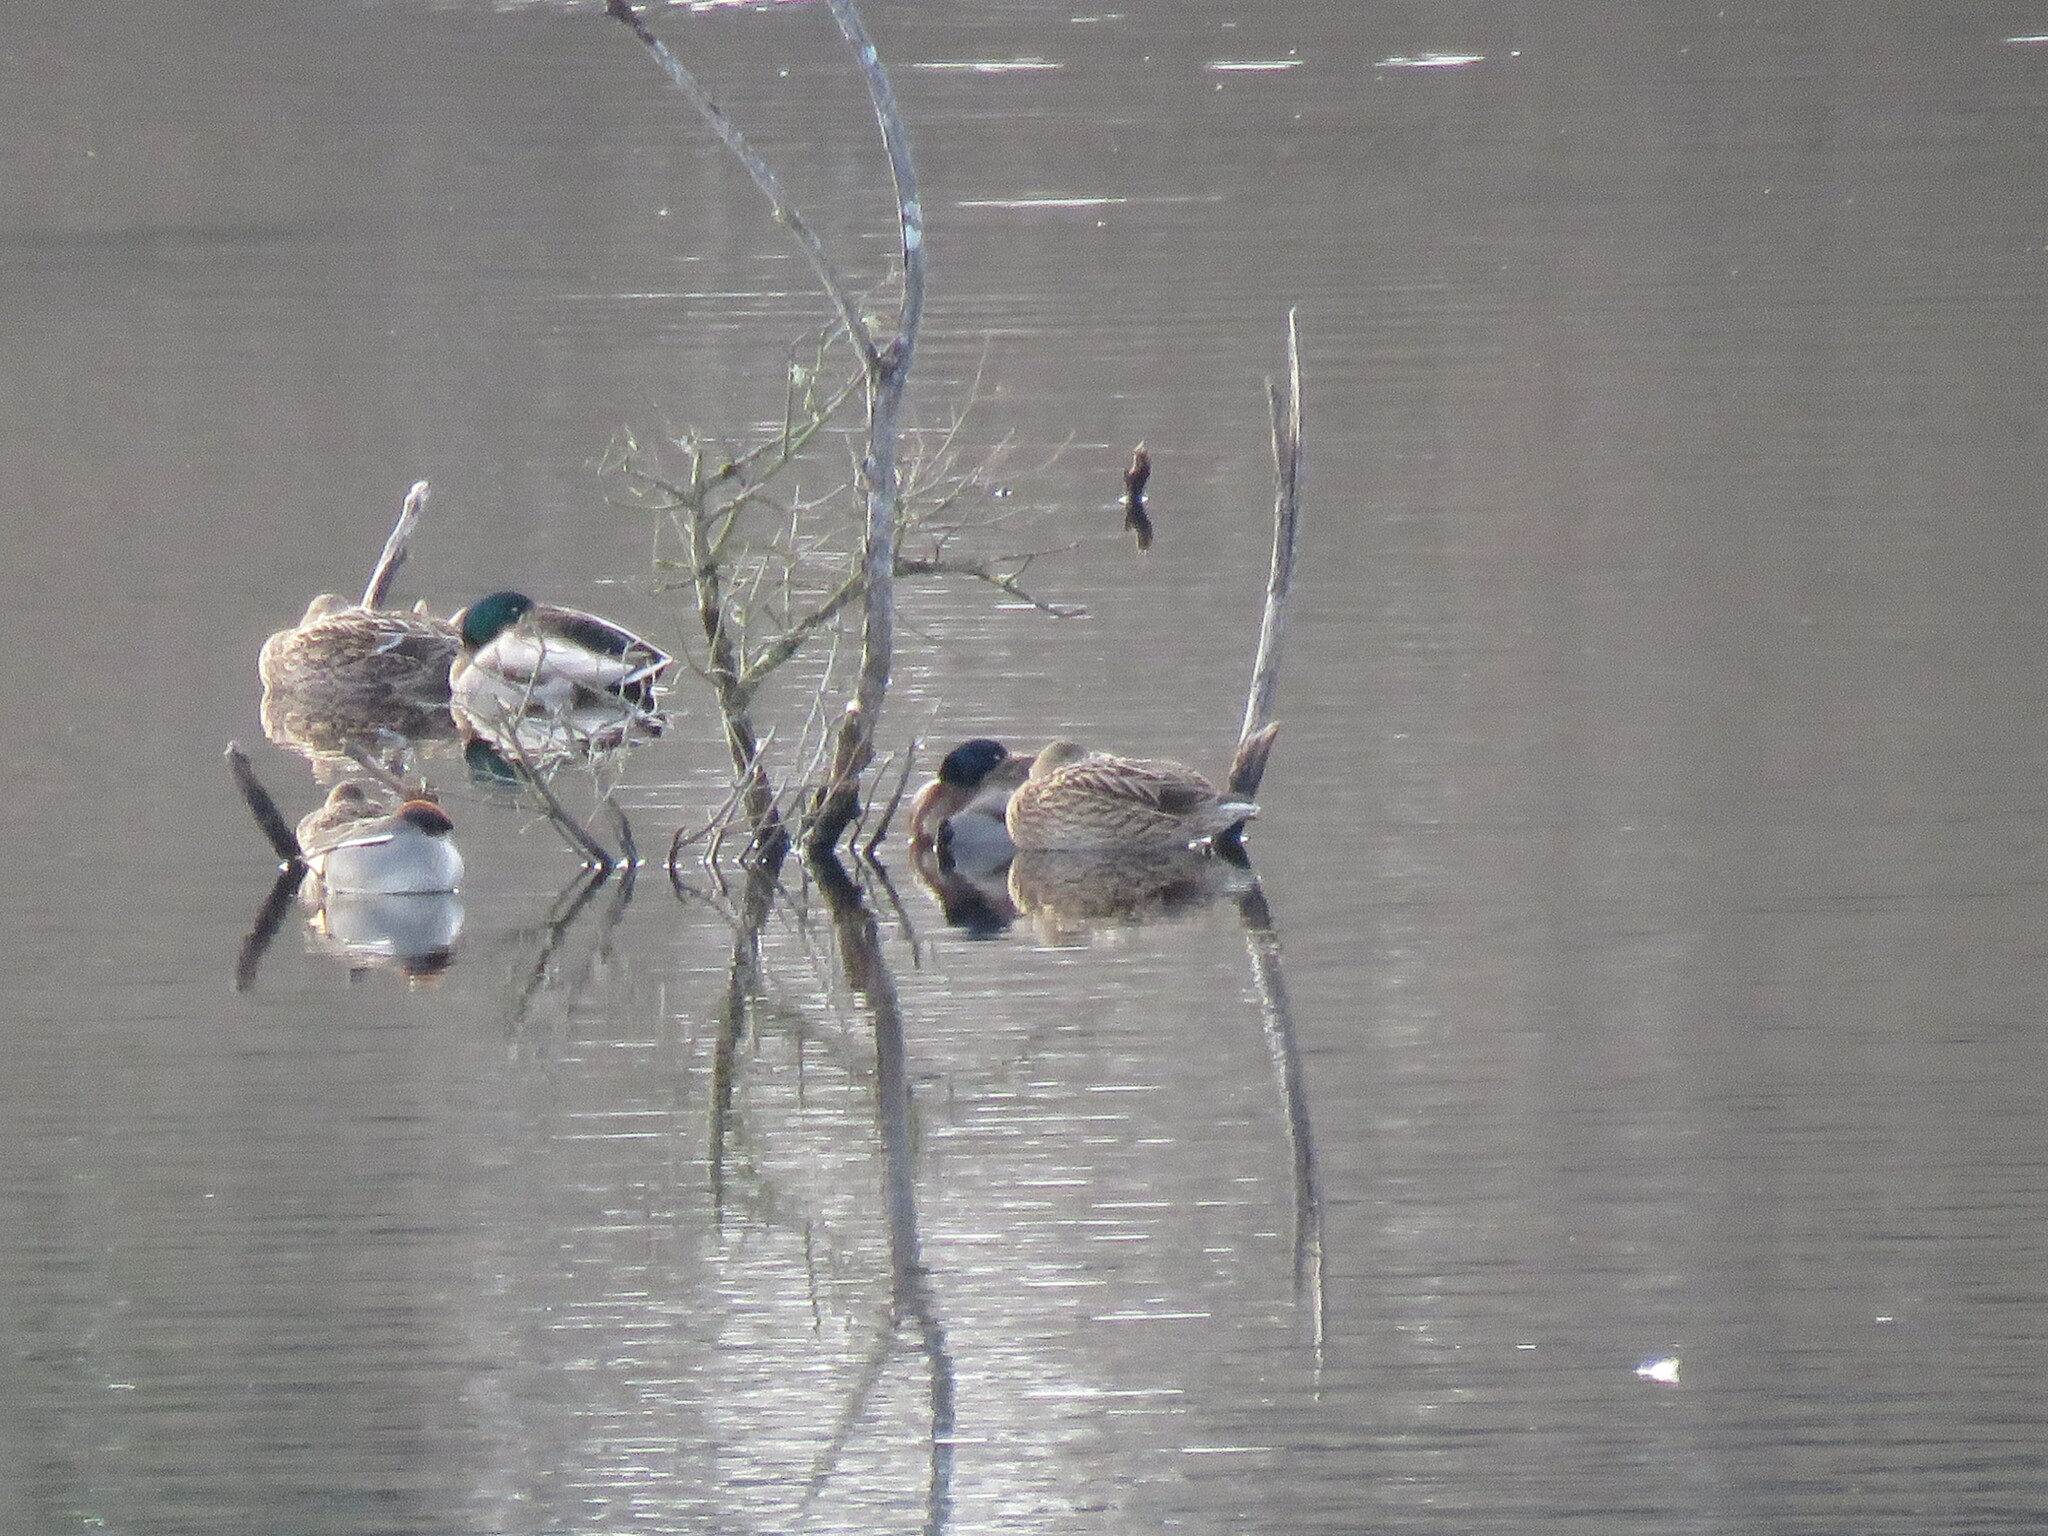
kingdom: Animalia
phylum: Chordata
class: Aves
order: Anseriformes
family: Anatidae
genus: Anas
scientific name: Anas platyrhynchos
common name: Mallard
